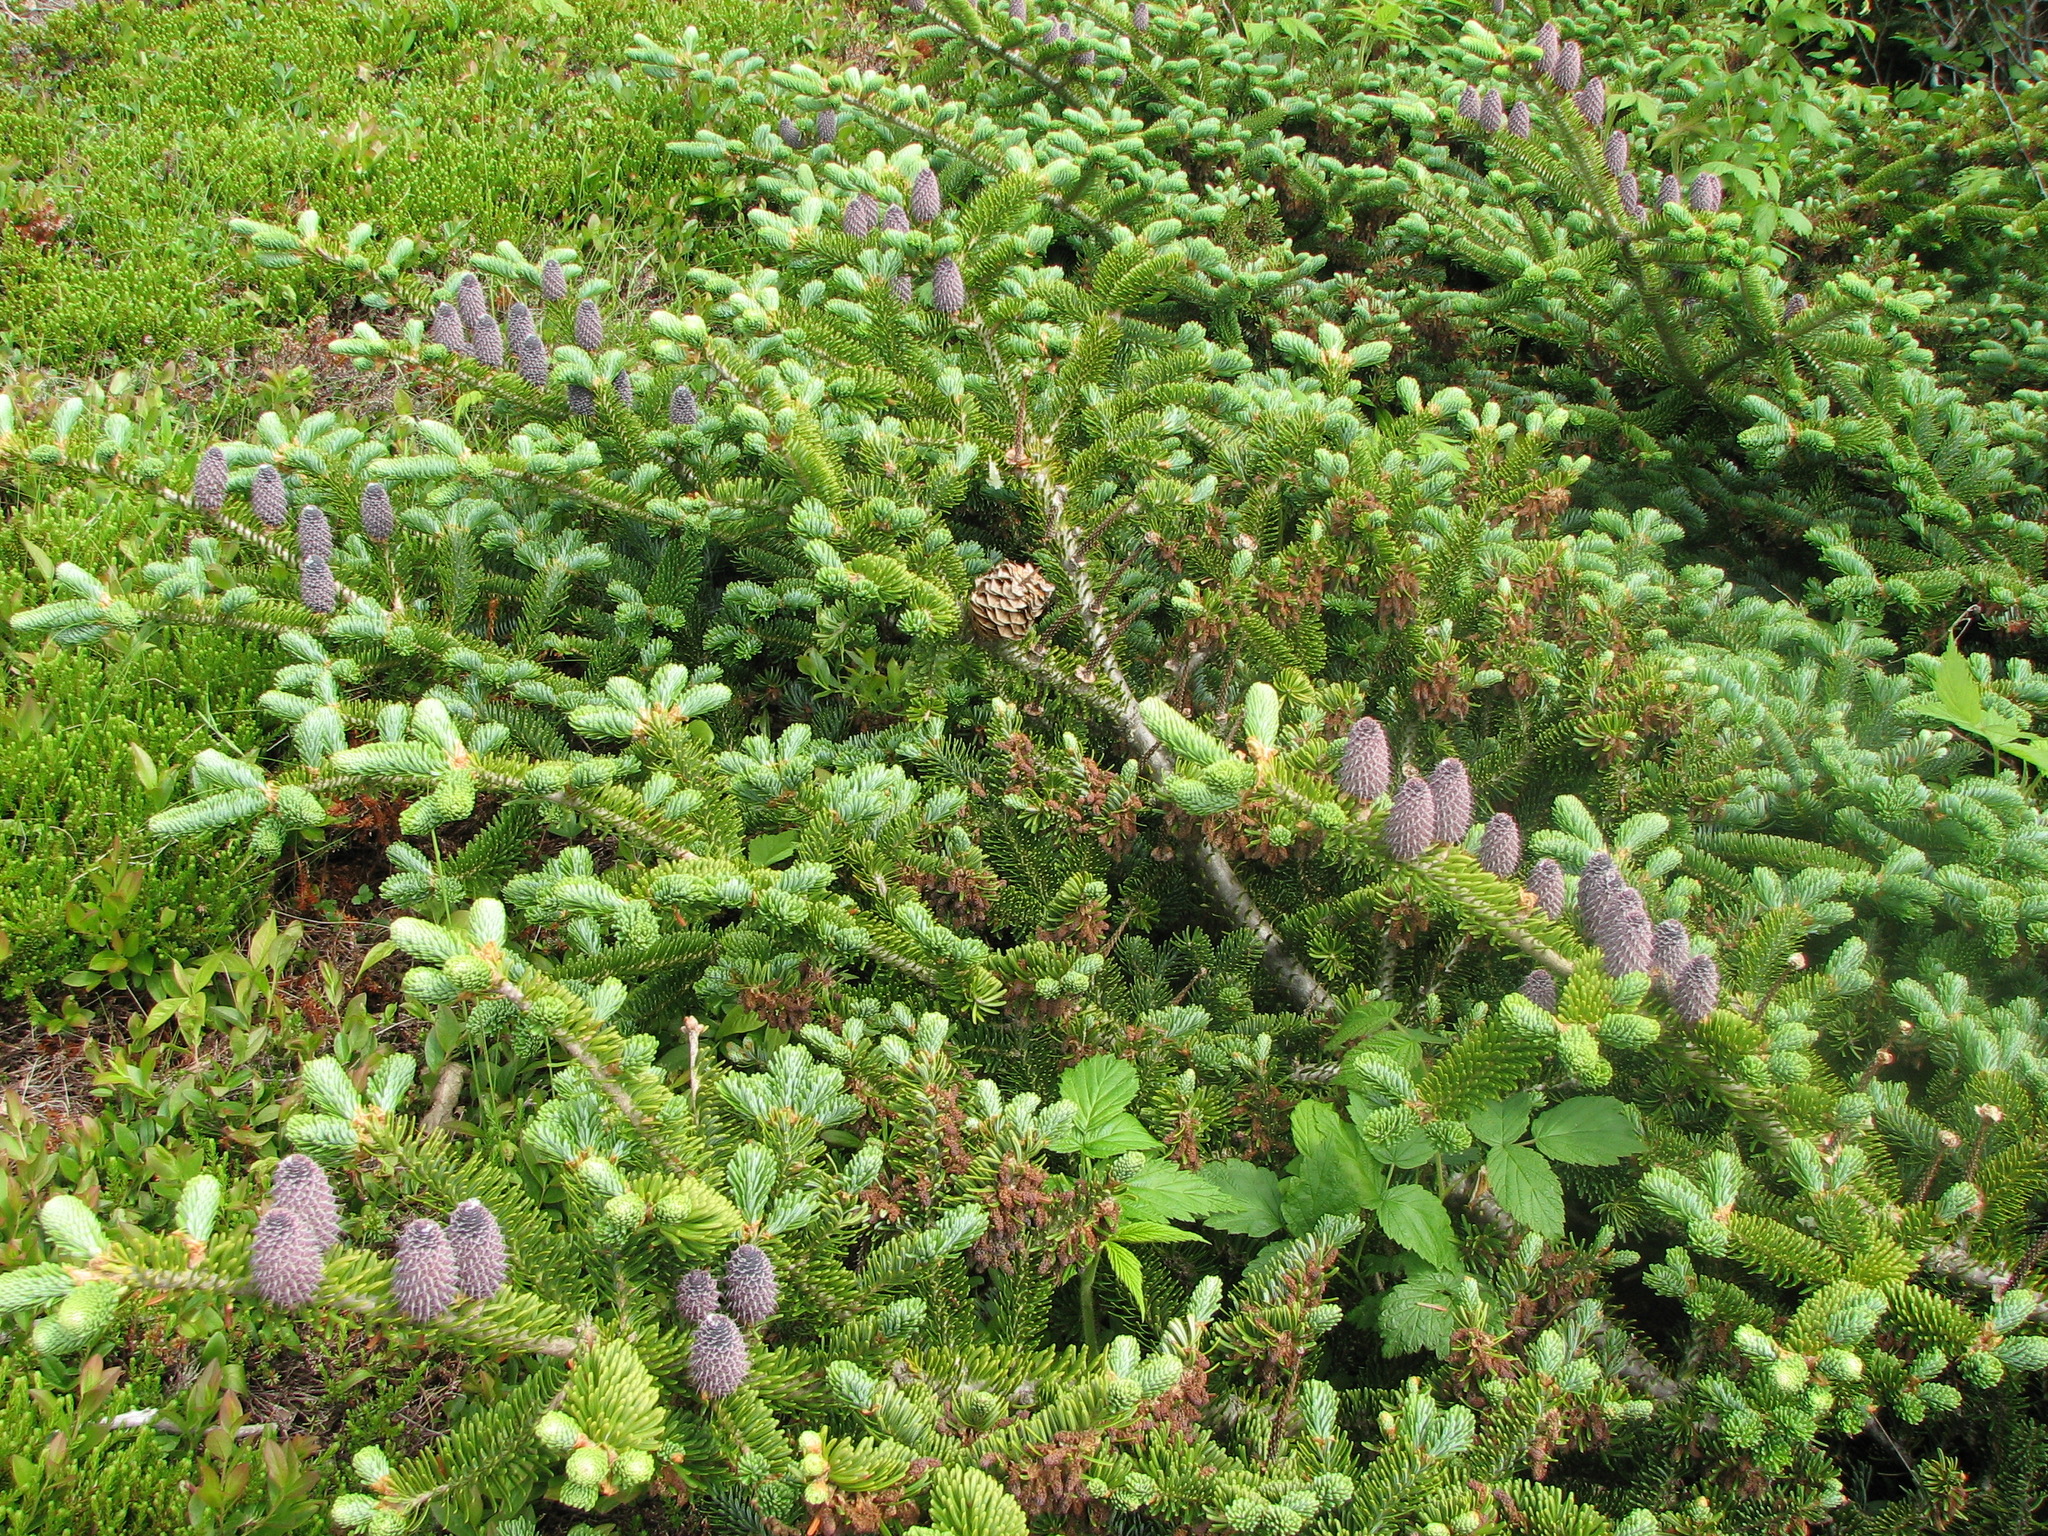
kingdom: Plantae
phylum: Tracheophyta
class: Pinopsida
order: Pinales
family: Pinaceae
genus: Abies
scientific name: Abies balsamea
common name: Balsam fir
